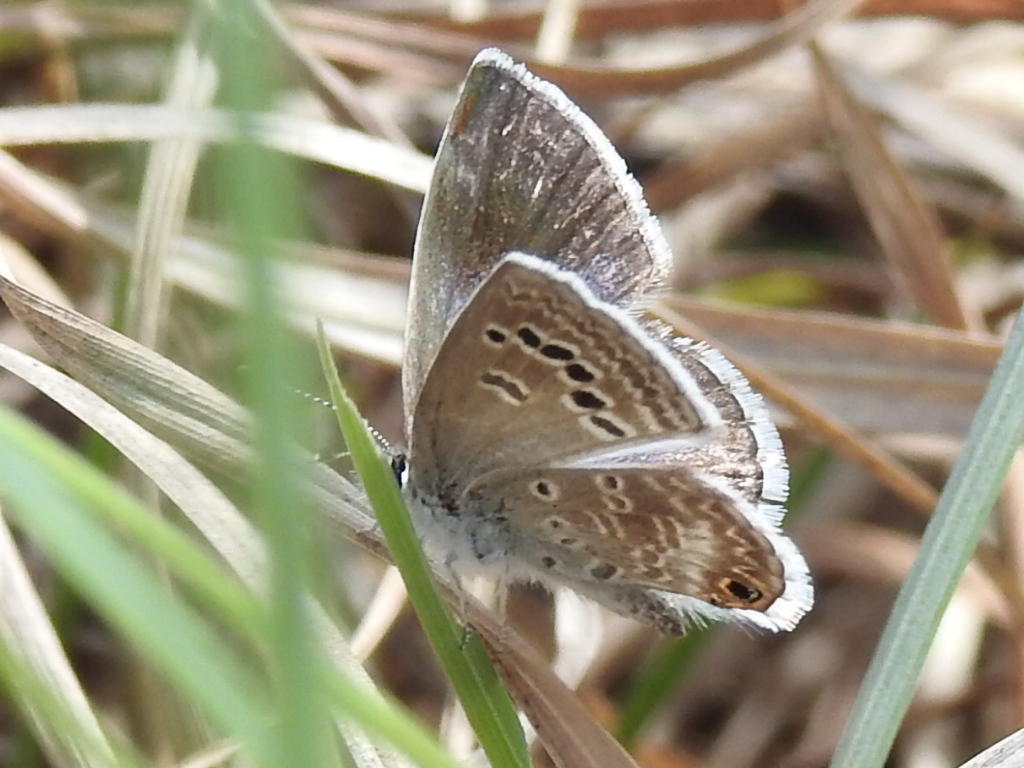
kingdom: Animalia
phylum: Arthropoda
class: Insecta
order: Lepidoptera
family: Lycaenidae
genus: Echinargus
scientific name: Echinargus isola
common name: Reakirt's blue
